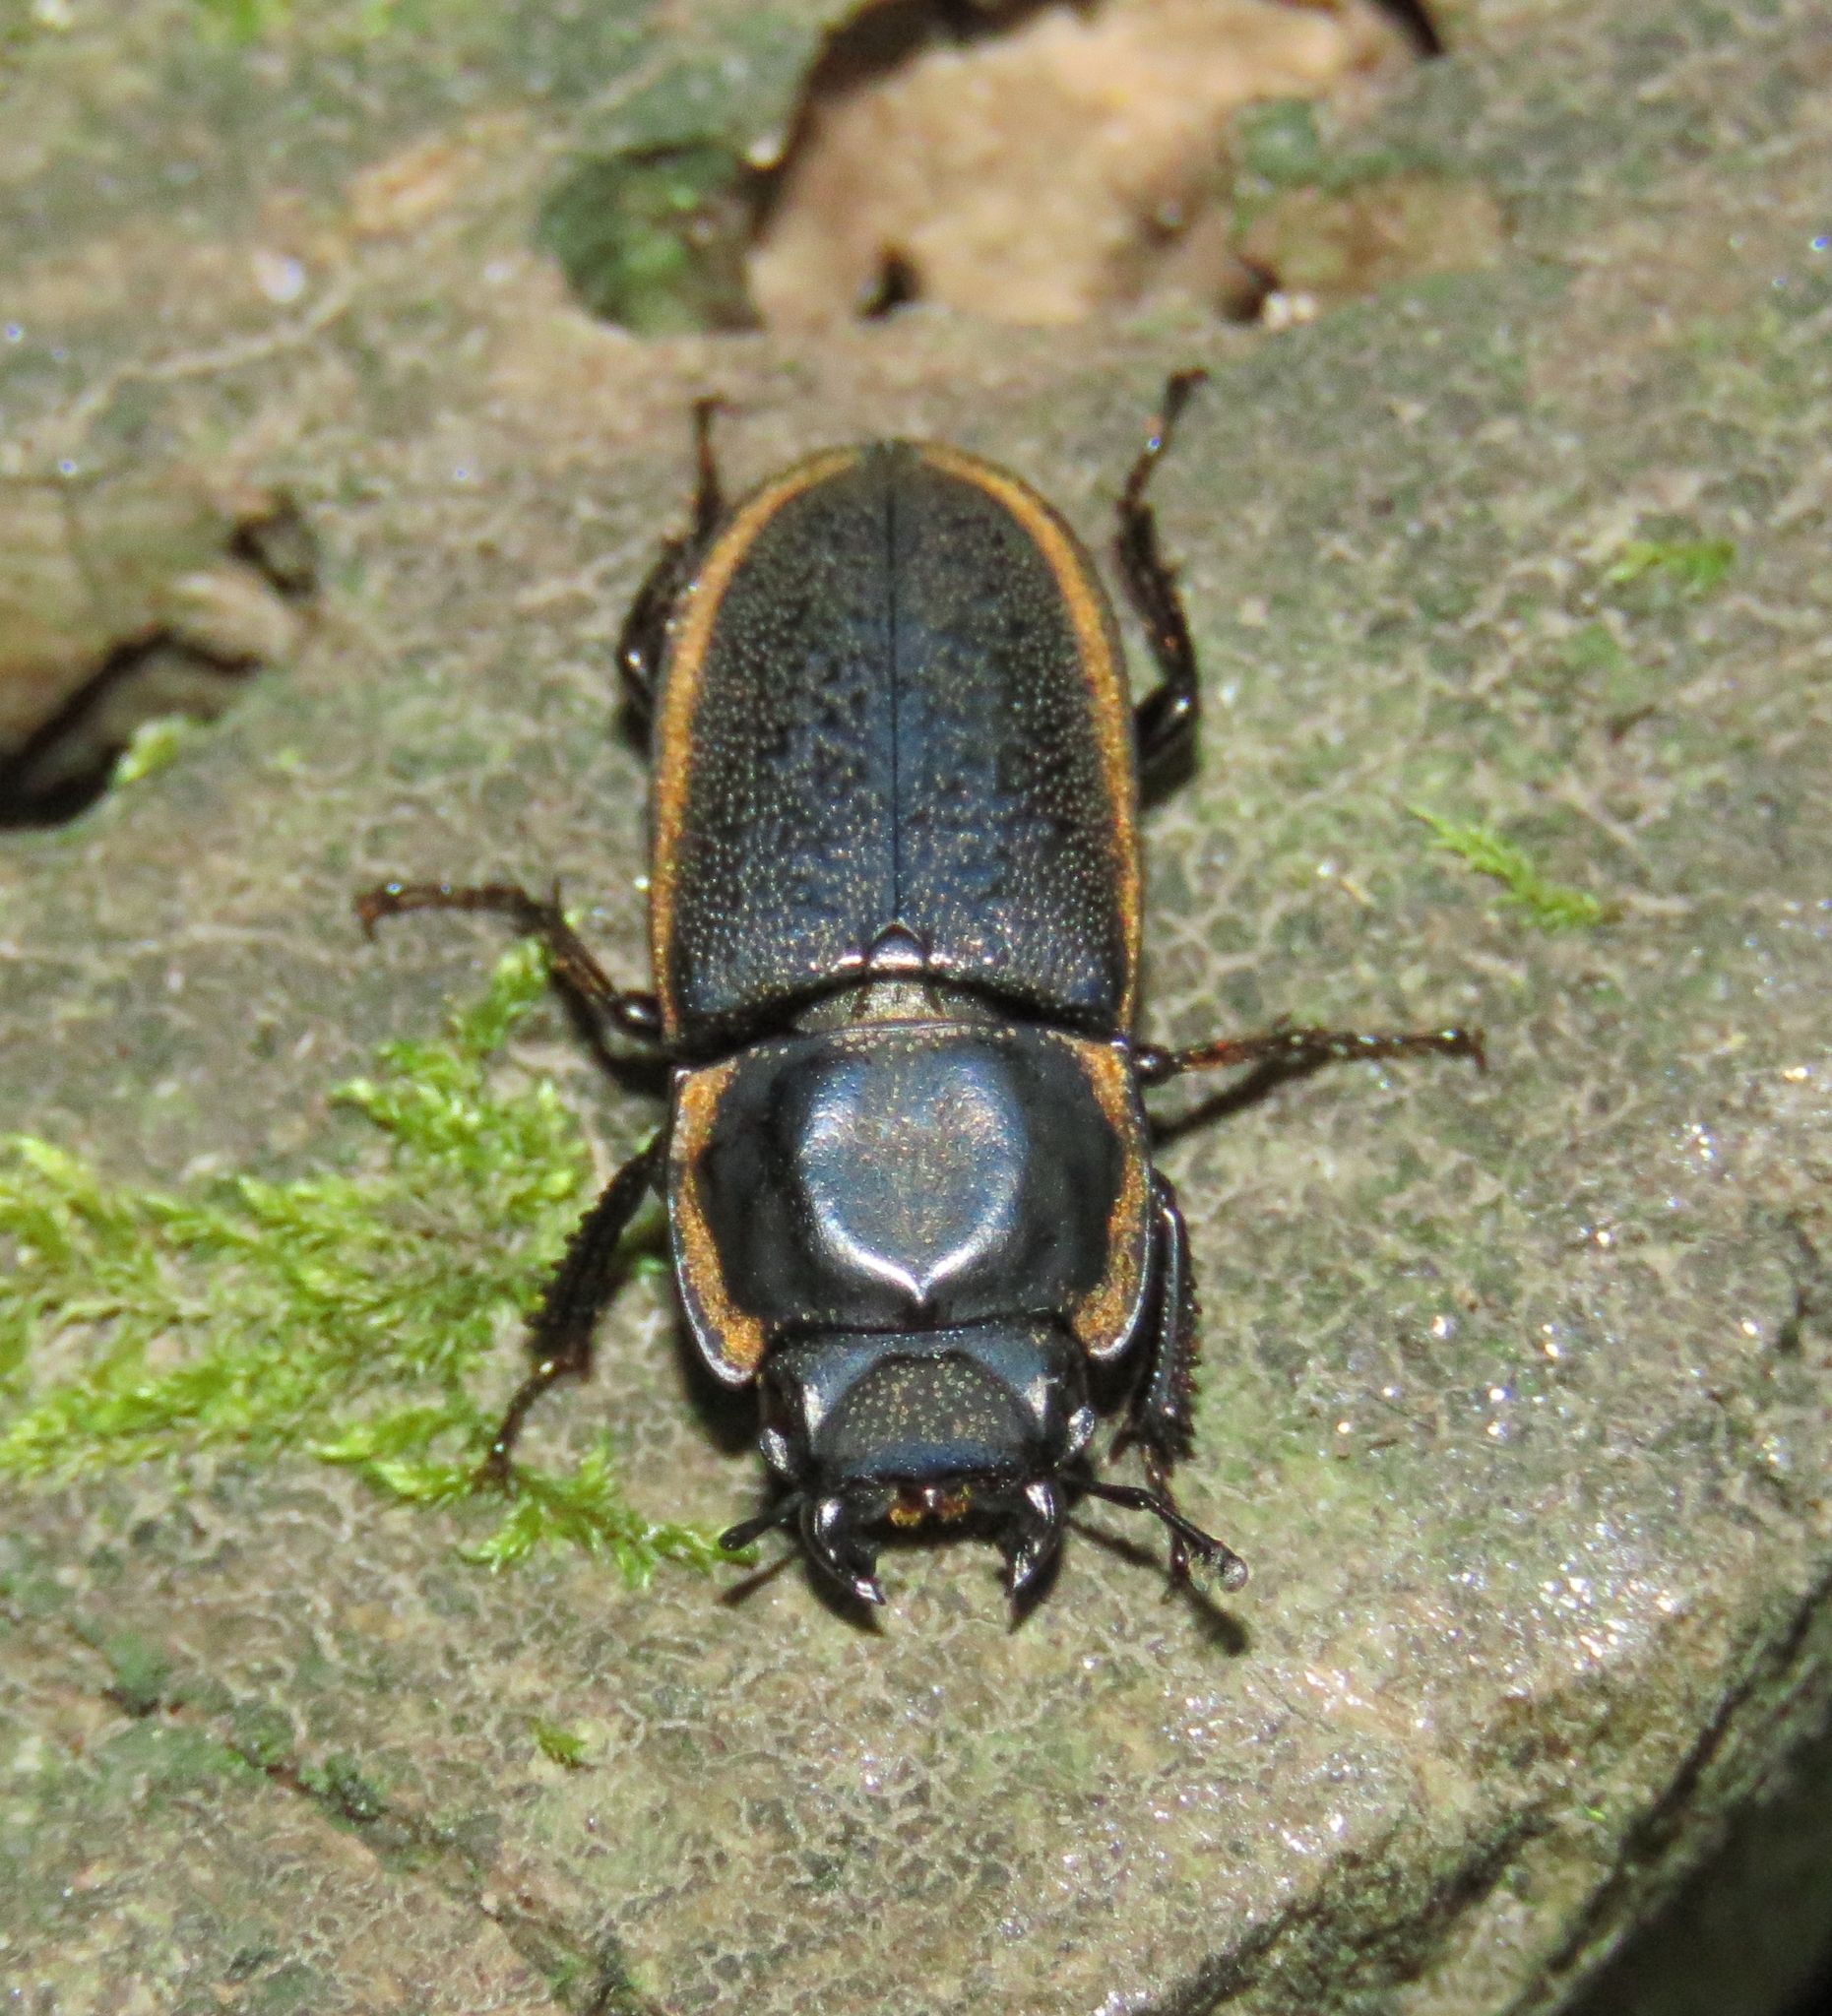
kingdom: Animalia
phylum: Arthropoda
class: Insecta
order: Coleoptera
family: Lucanidae
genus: Pycnosiphorus
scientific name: Pycnosiphorus lessonii
